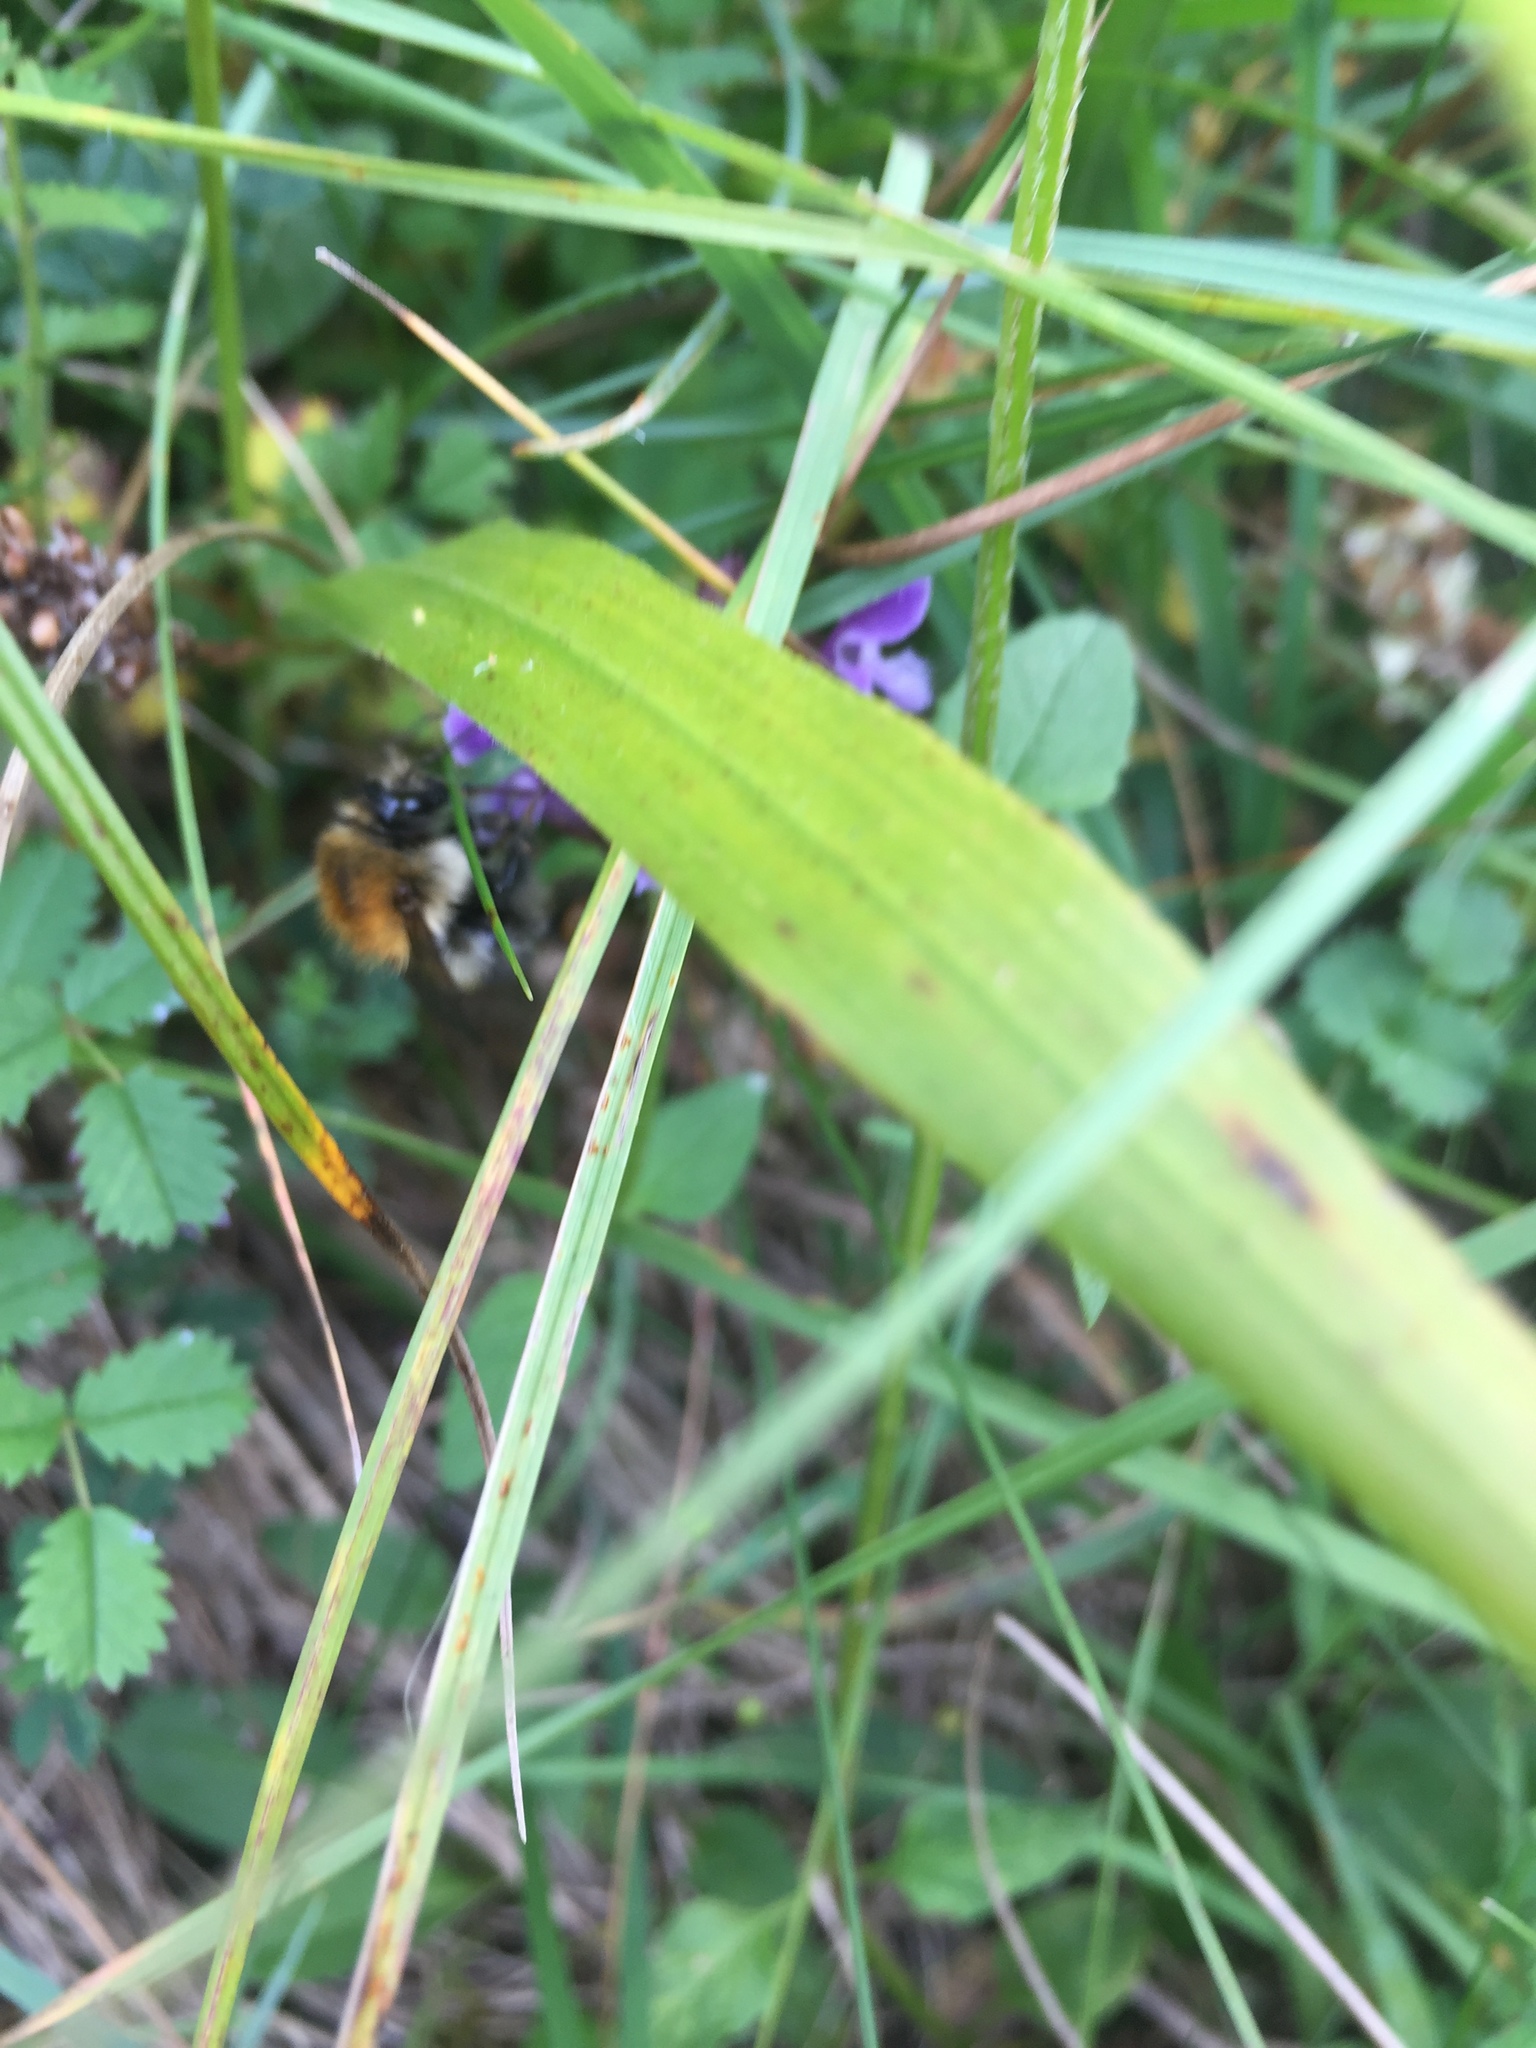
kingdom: Animalia
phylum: Arthropoda
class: Insecta
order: Hymenoptera
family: Apidae
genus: Bombus
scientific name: Bombus pascuorum
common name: Common carder bee
